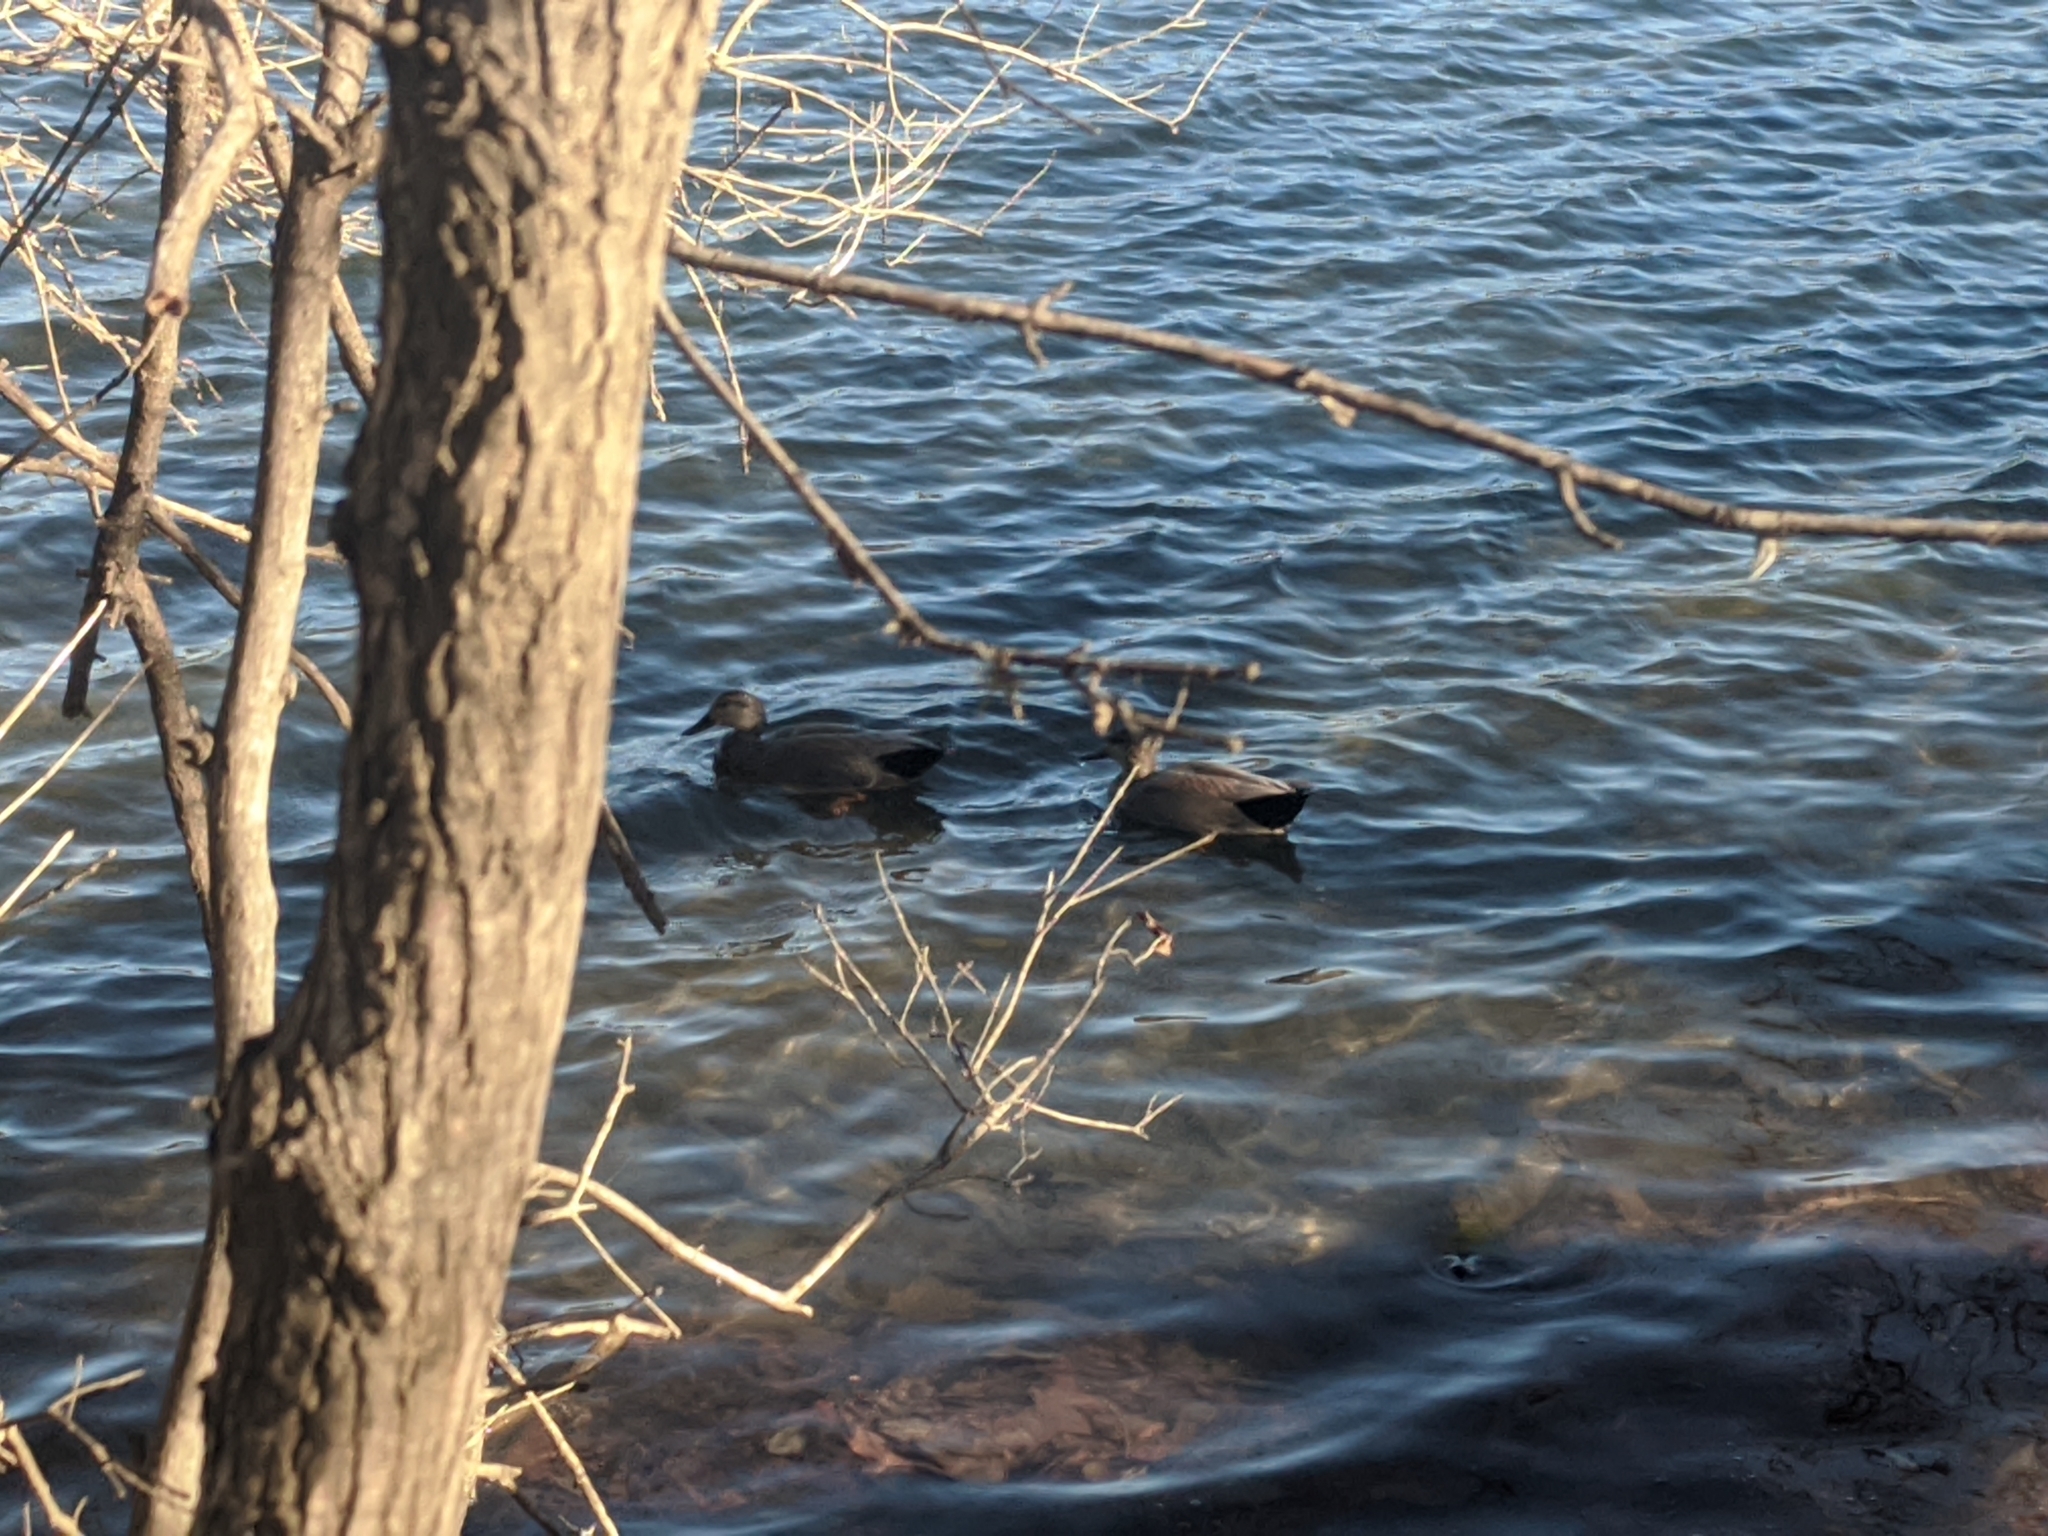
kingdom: Animalia
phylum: Chordata
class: Aves
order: Anseriformes
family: Anatidae
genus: Mareca
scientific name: Mareca strepera
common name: Gadwall
